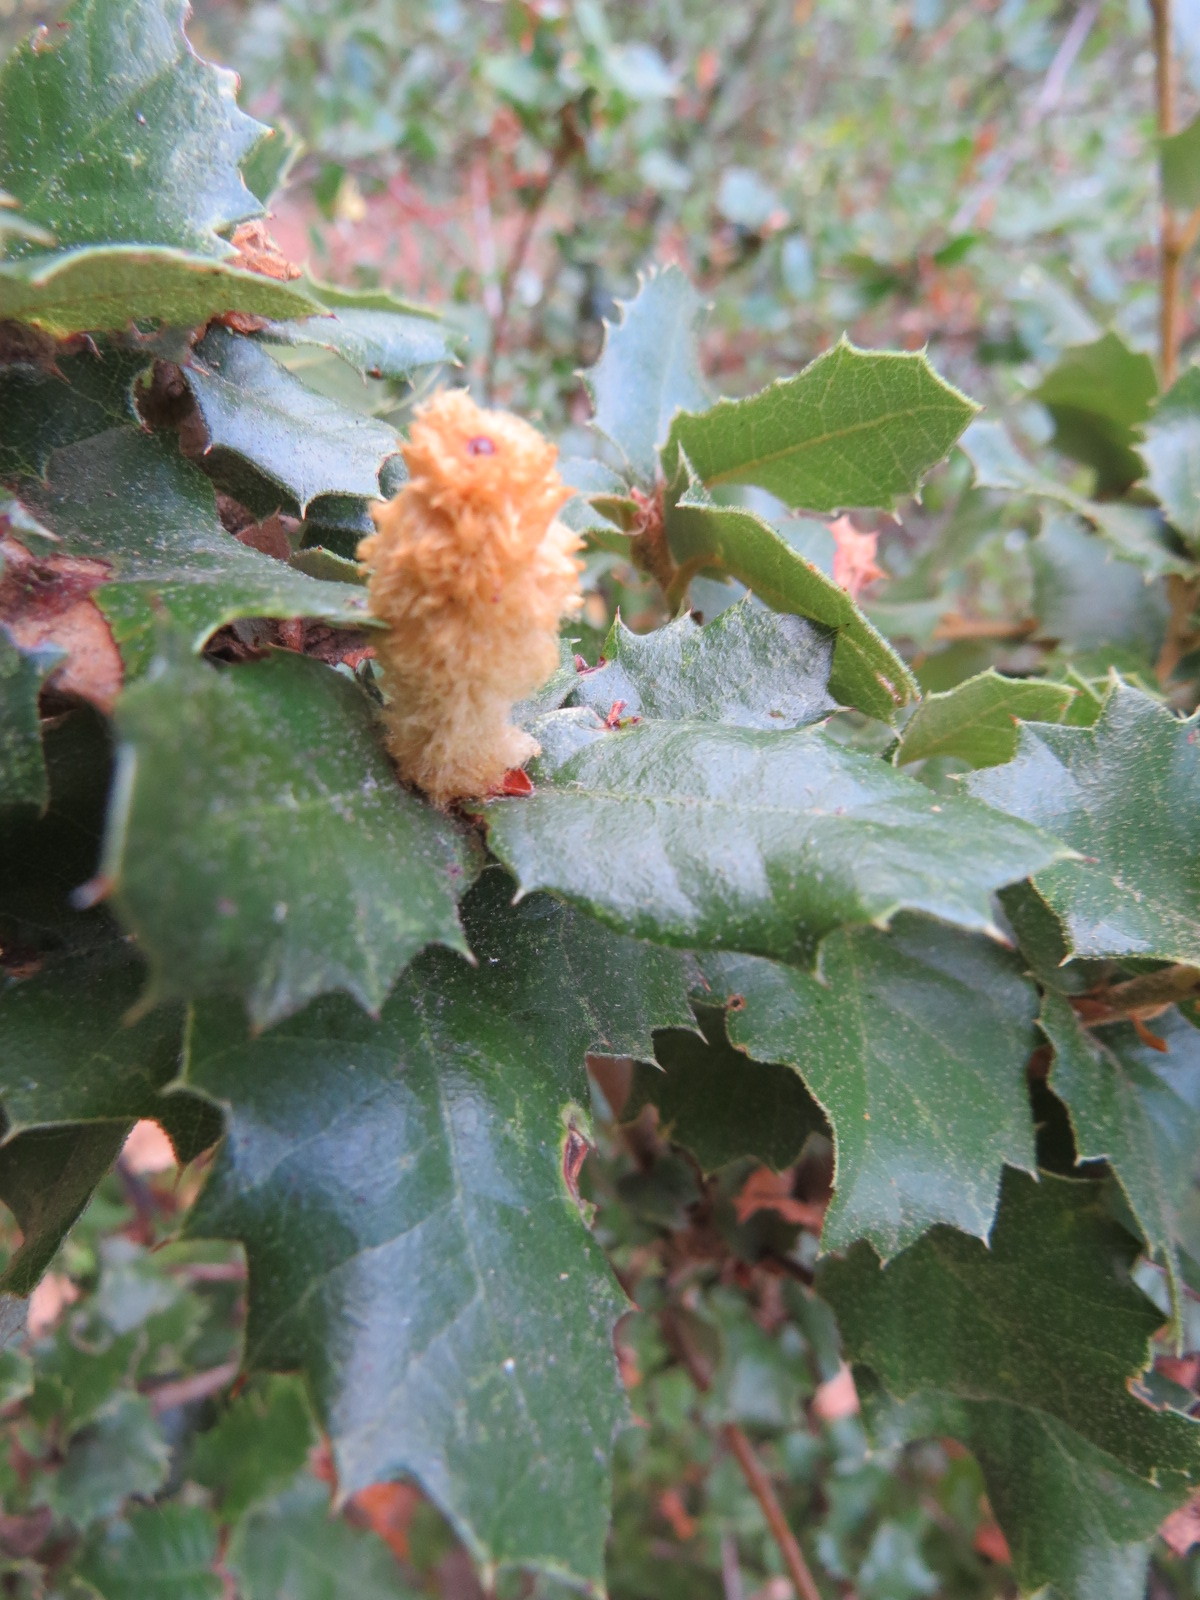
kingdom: Animalia
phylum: Arthropoda
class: Insecta
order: Hymenoptera
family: Cynipidae
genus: Heteroecus
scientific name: Heteroecus
